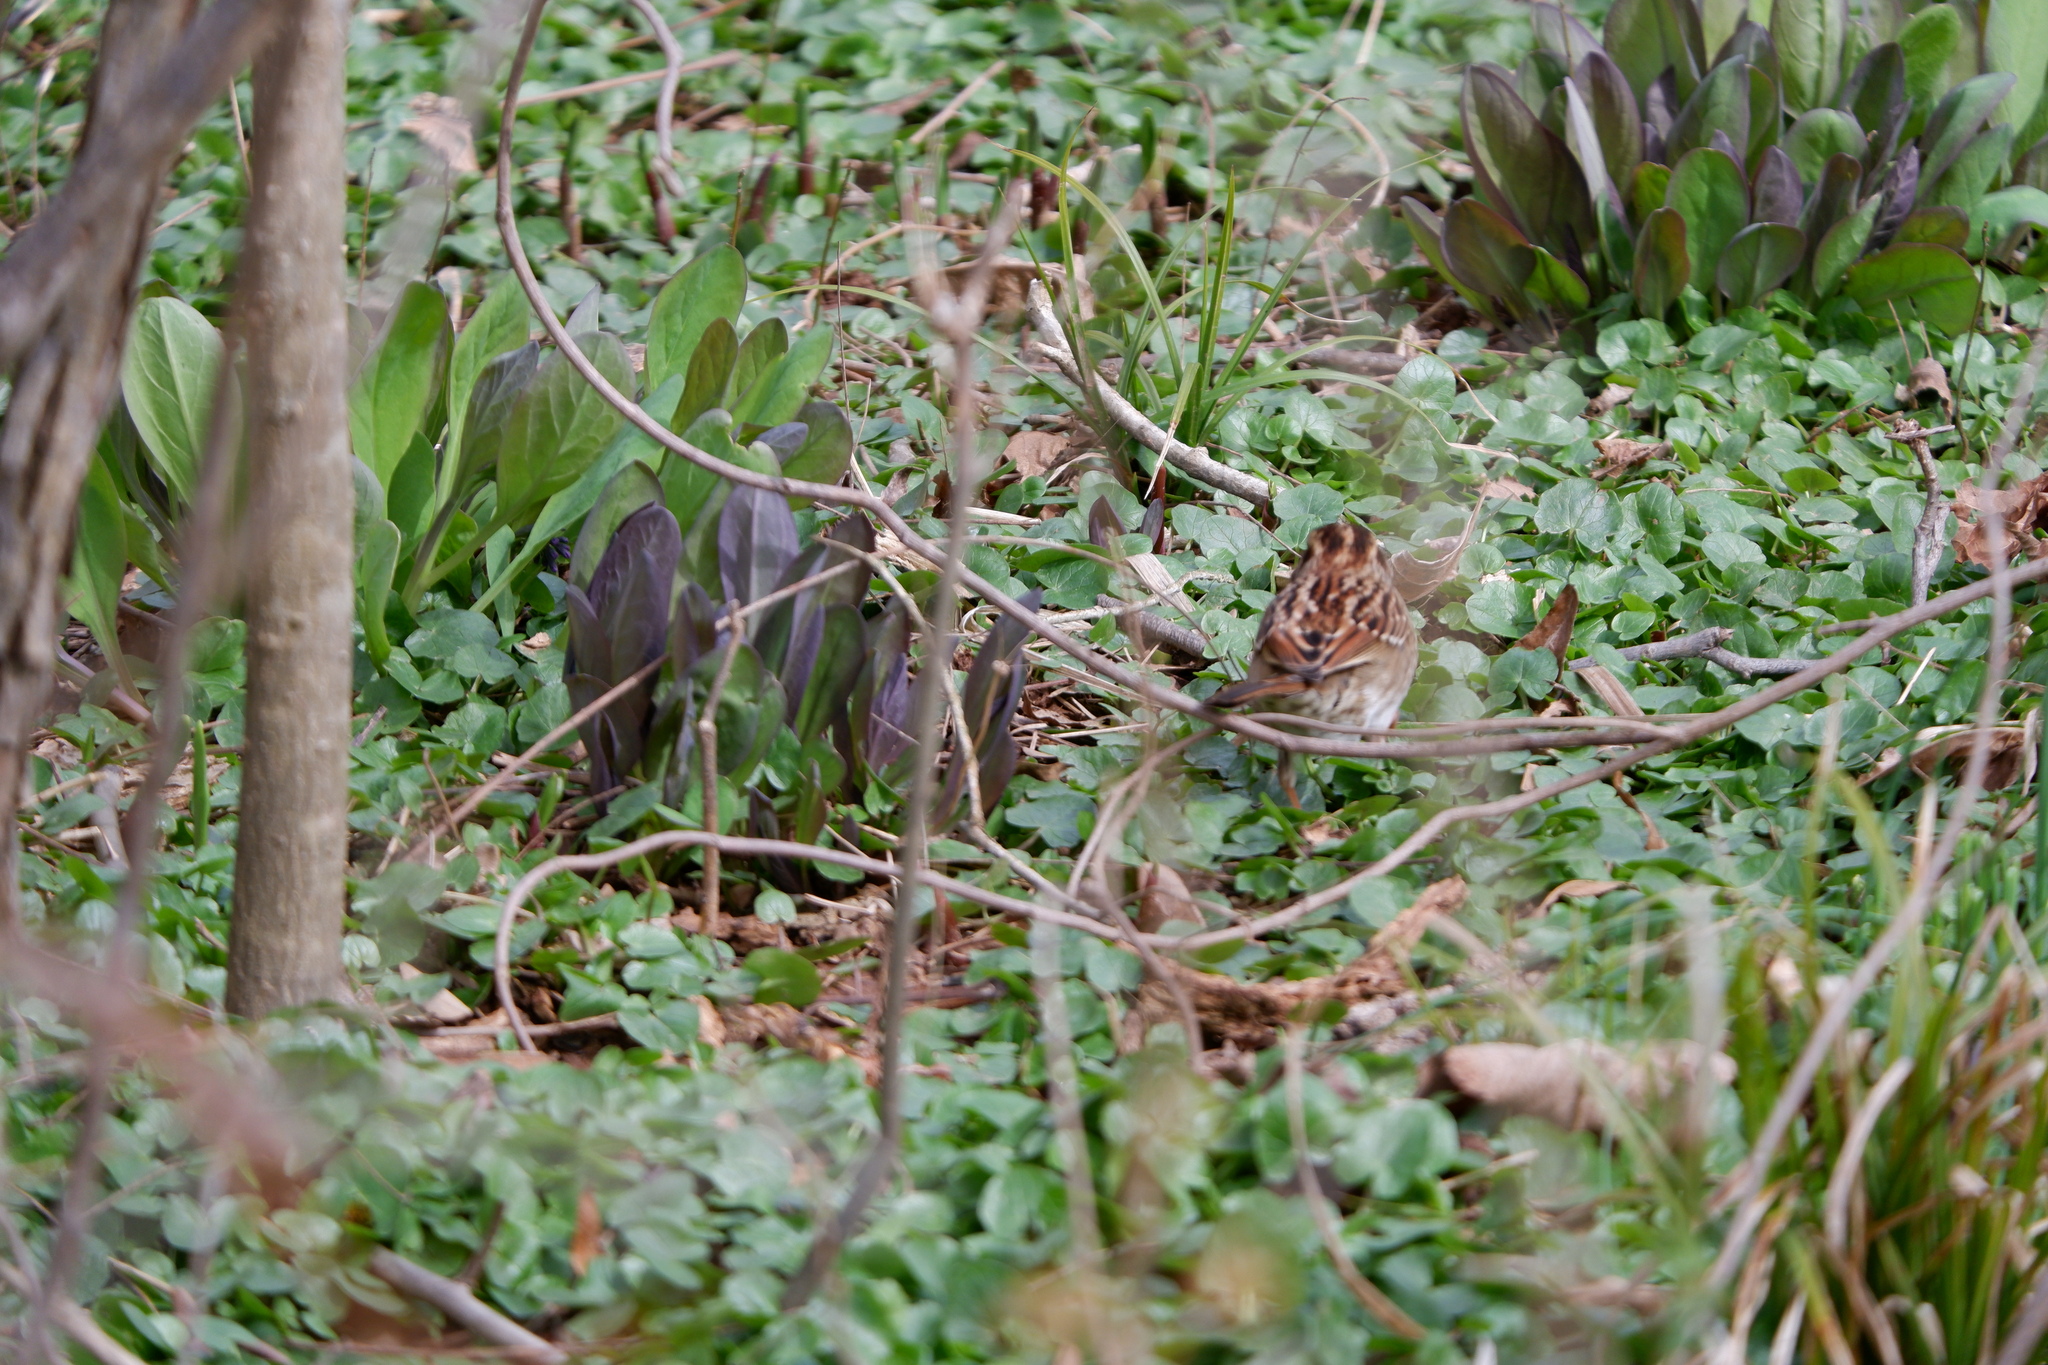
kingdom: Animalia
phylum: Chordata
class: Aves
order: Passeriformes
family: Passerellidae
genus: Zonotrichia
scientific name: Zonotrichia albicollis
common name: White-throated sparrow
